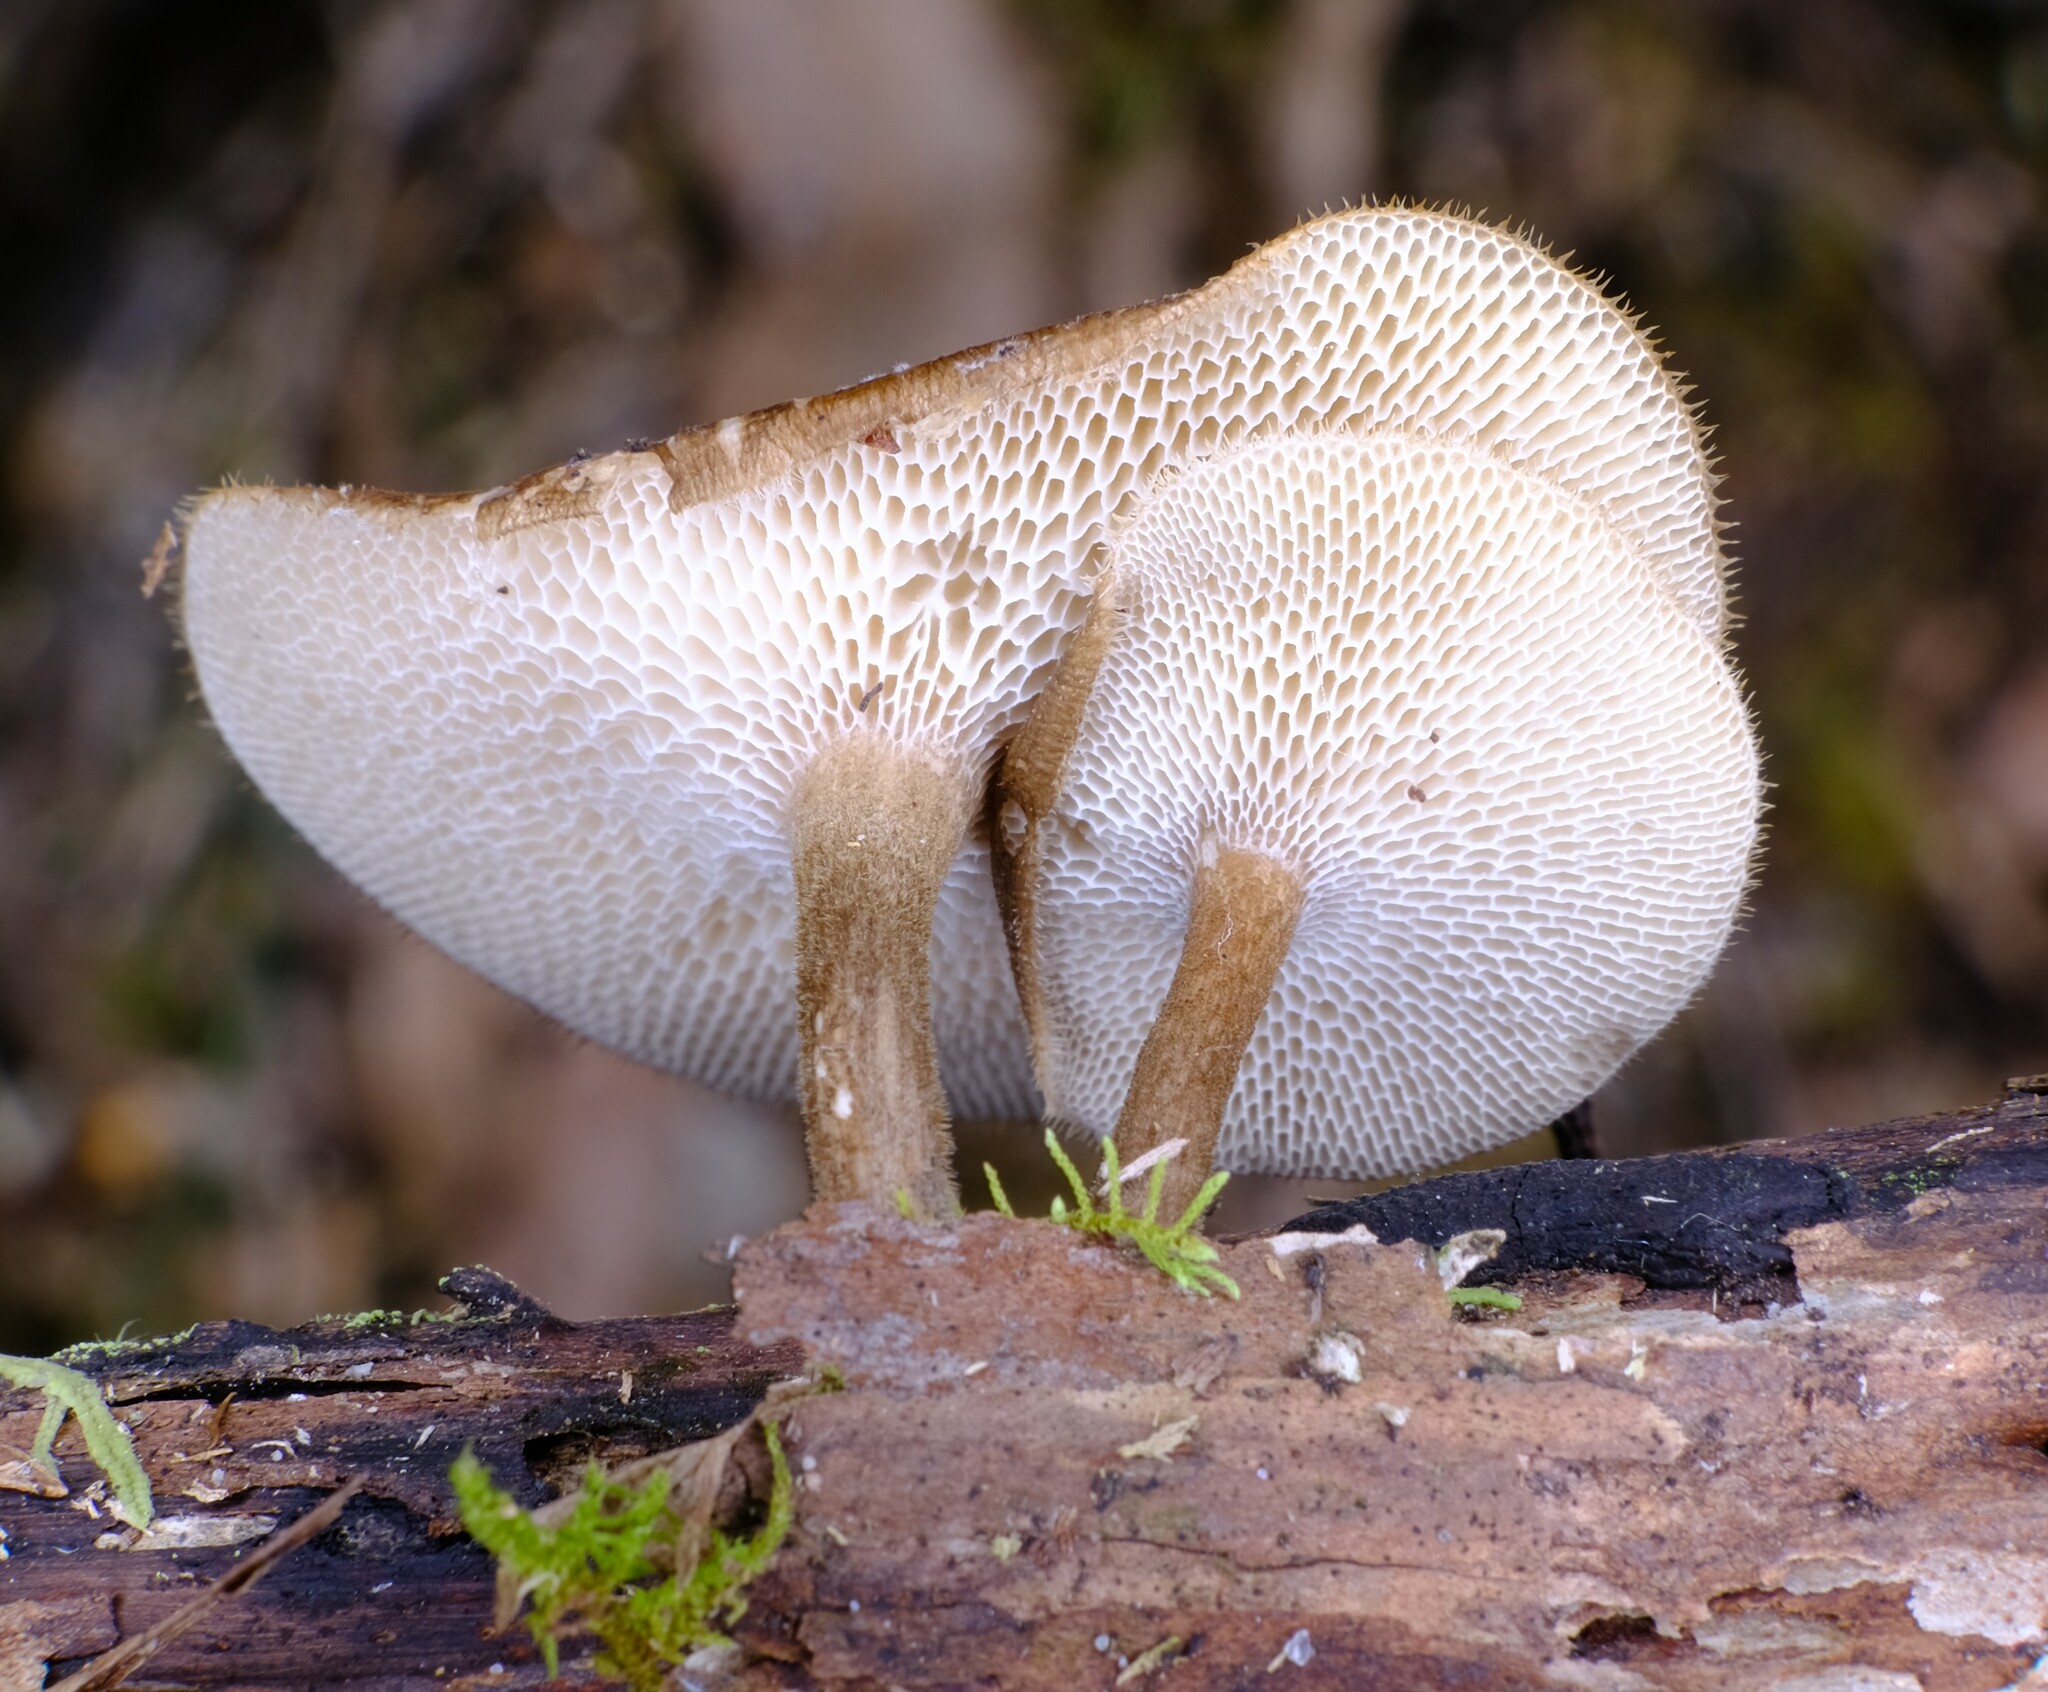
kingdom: Fungi
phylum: Basidiomycota
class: Agaricomycetes
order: Polyporales
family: Polyporaceae
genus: Lentinus
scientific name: Lentinus arcularius
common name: Spring polypore
